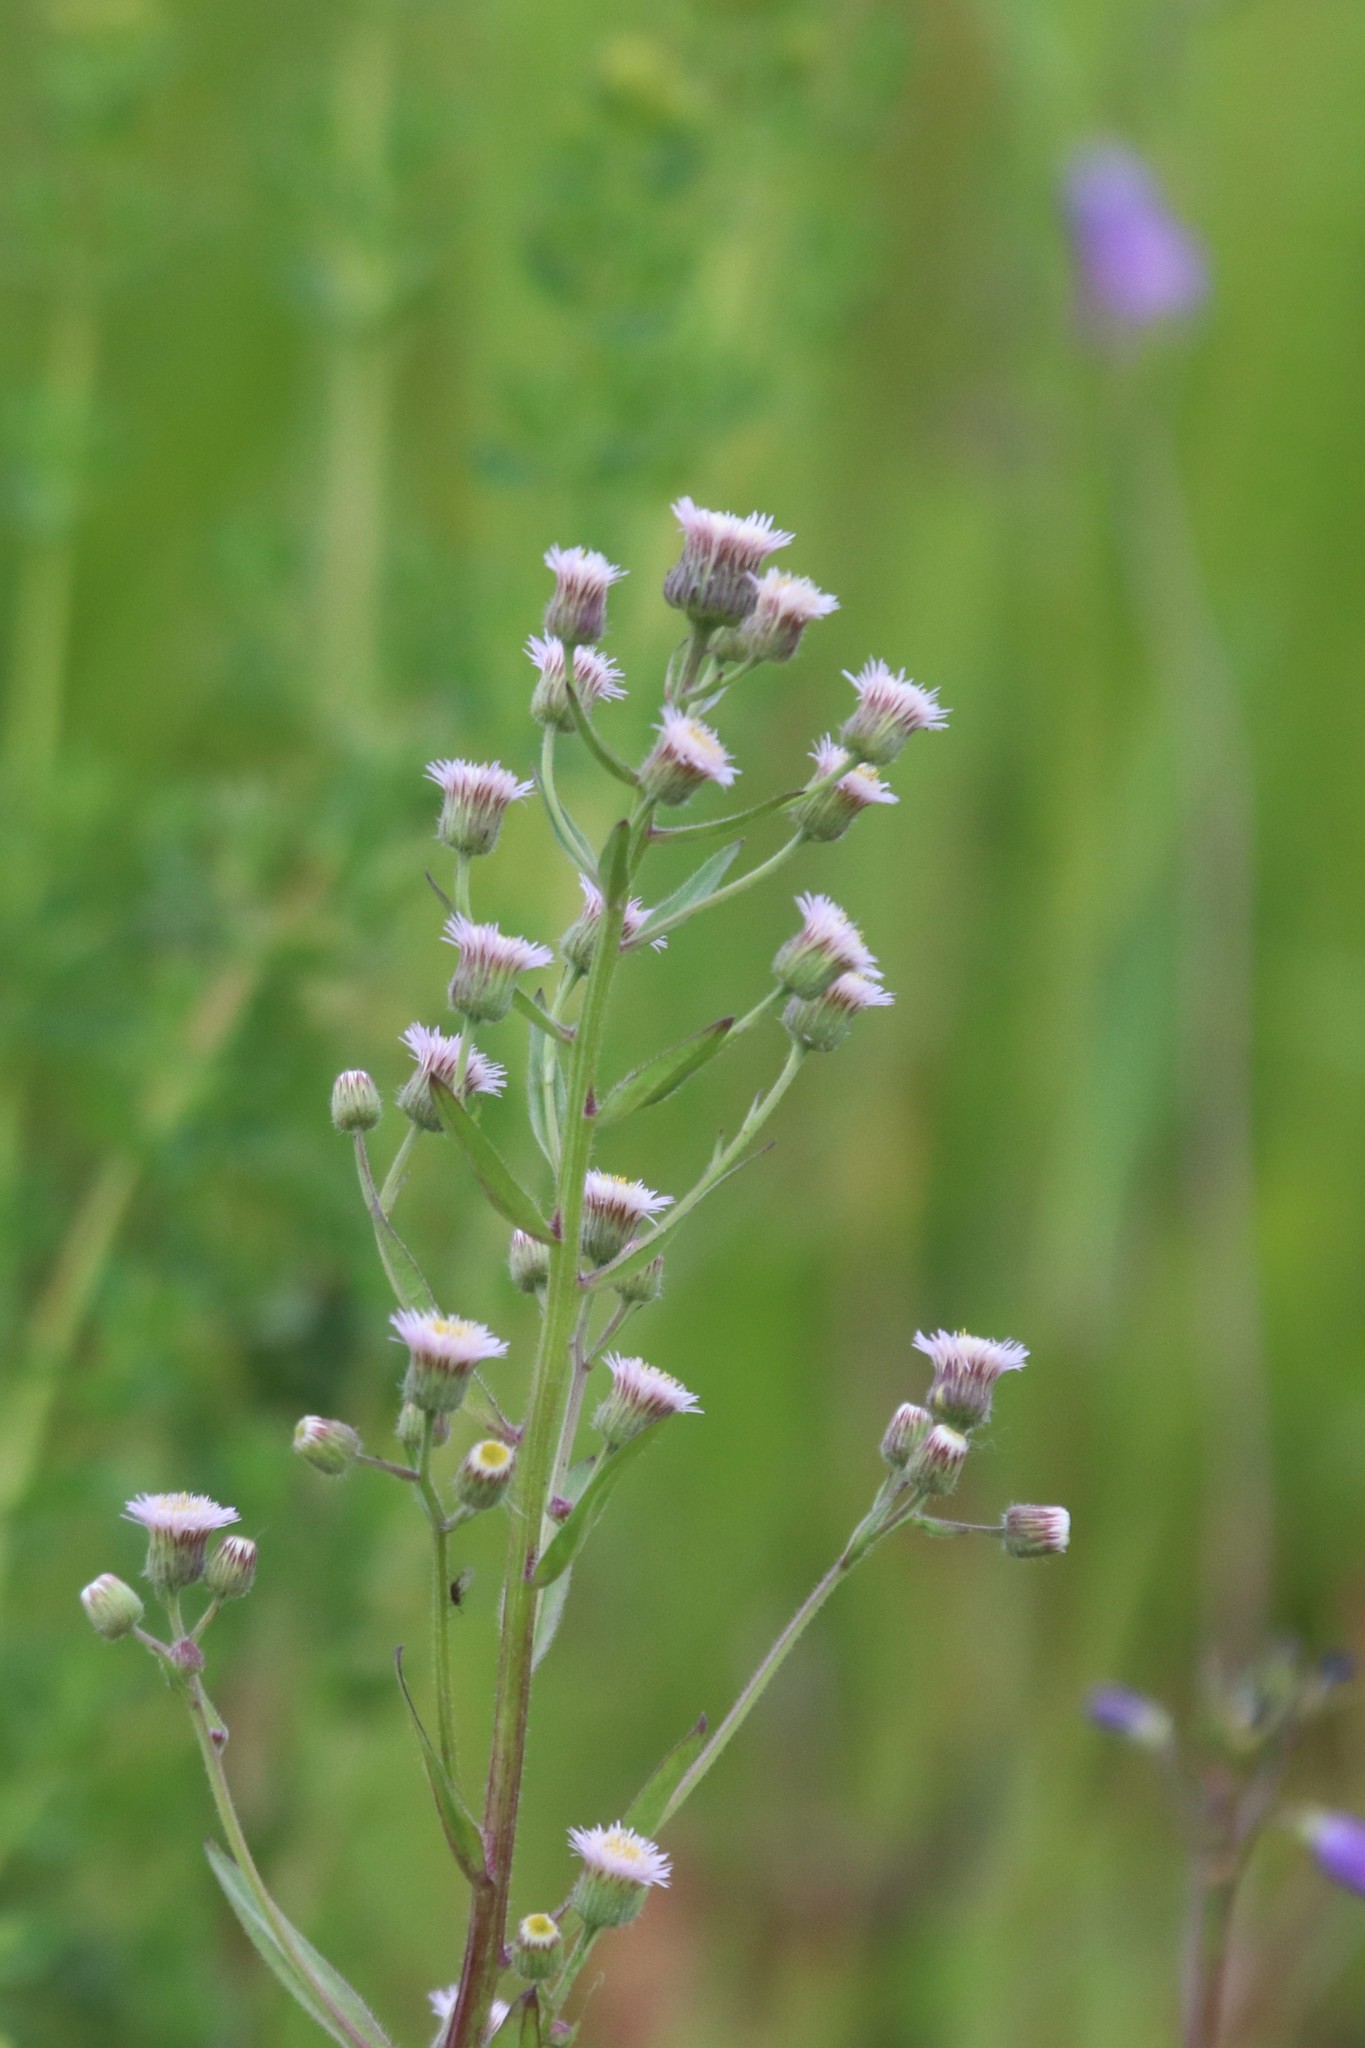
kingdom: Plantae
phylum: Tracheophyta
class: Magnoliopsida
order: Asterales
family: Asteraceae
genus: Erigeron
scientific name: Erigeron acris
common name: Blue fleabane
